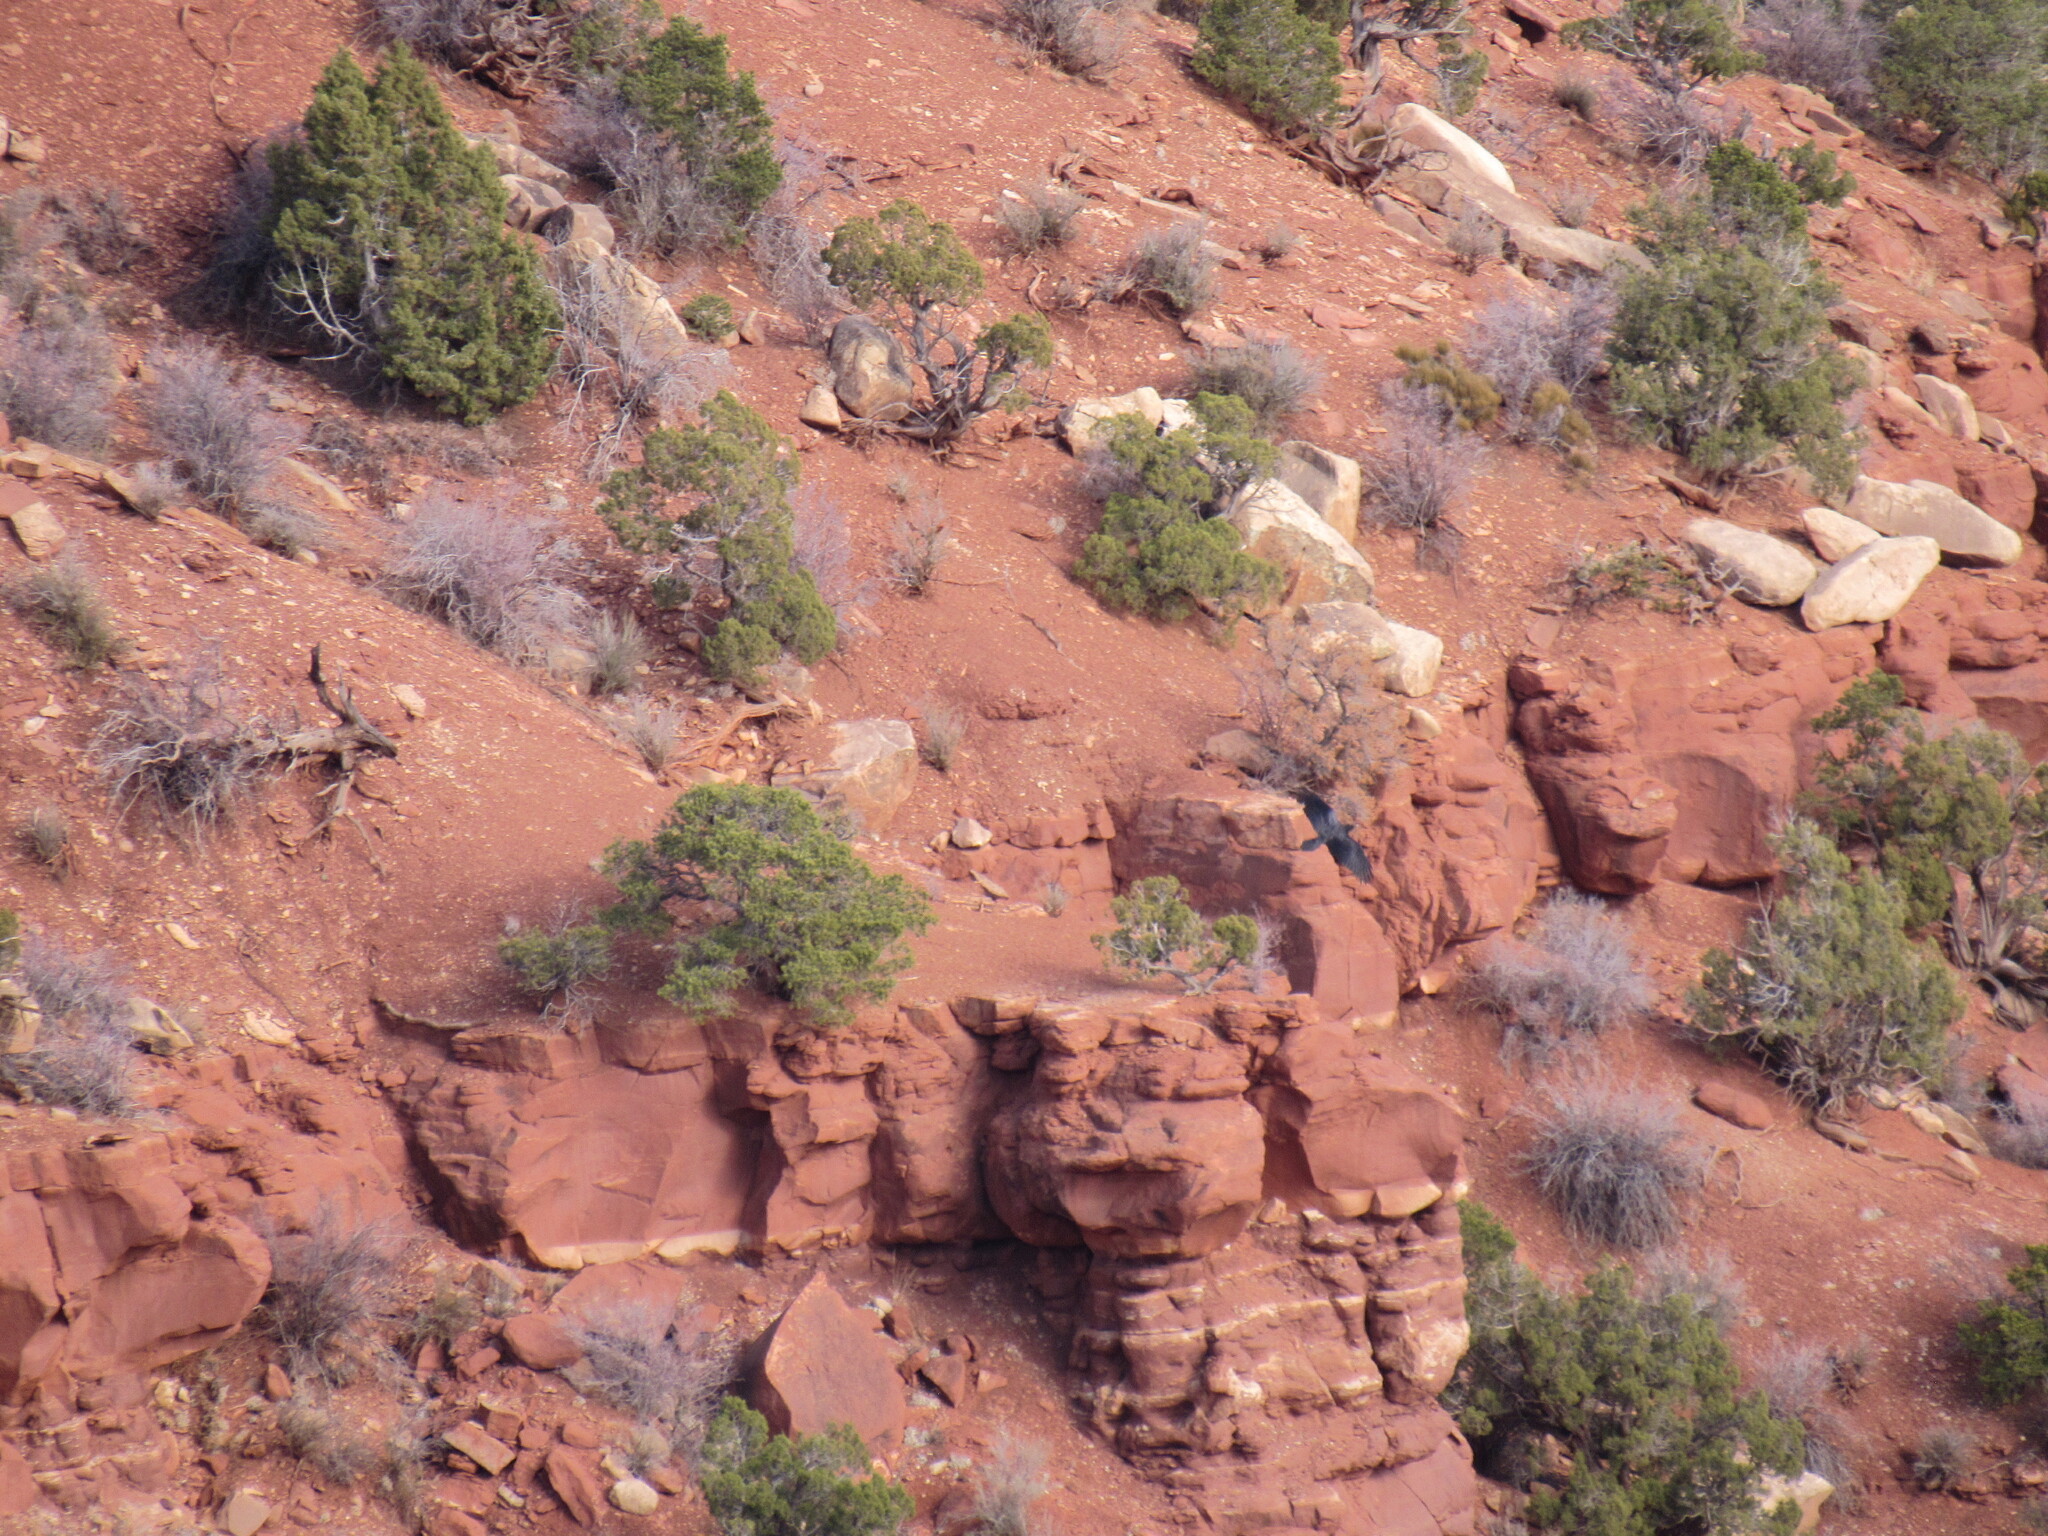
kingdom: Animalia
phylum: Chordata
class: Aves
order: Passeriformes
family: Corvidae
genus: Corvus
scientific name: Corvus corax
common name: Common raven
